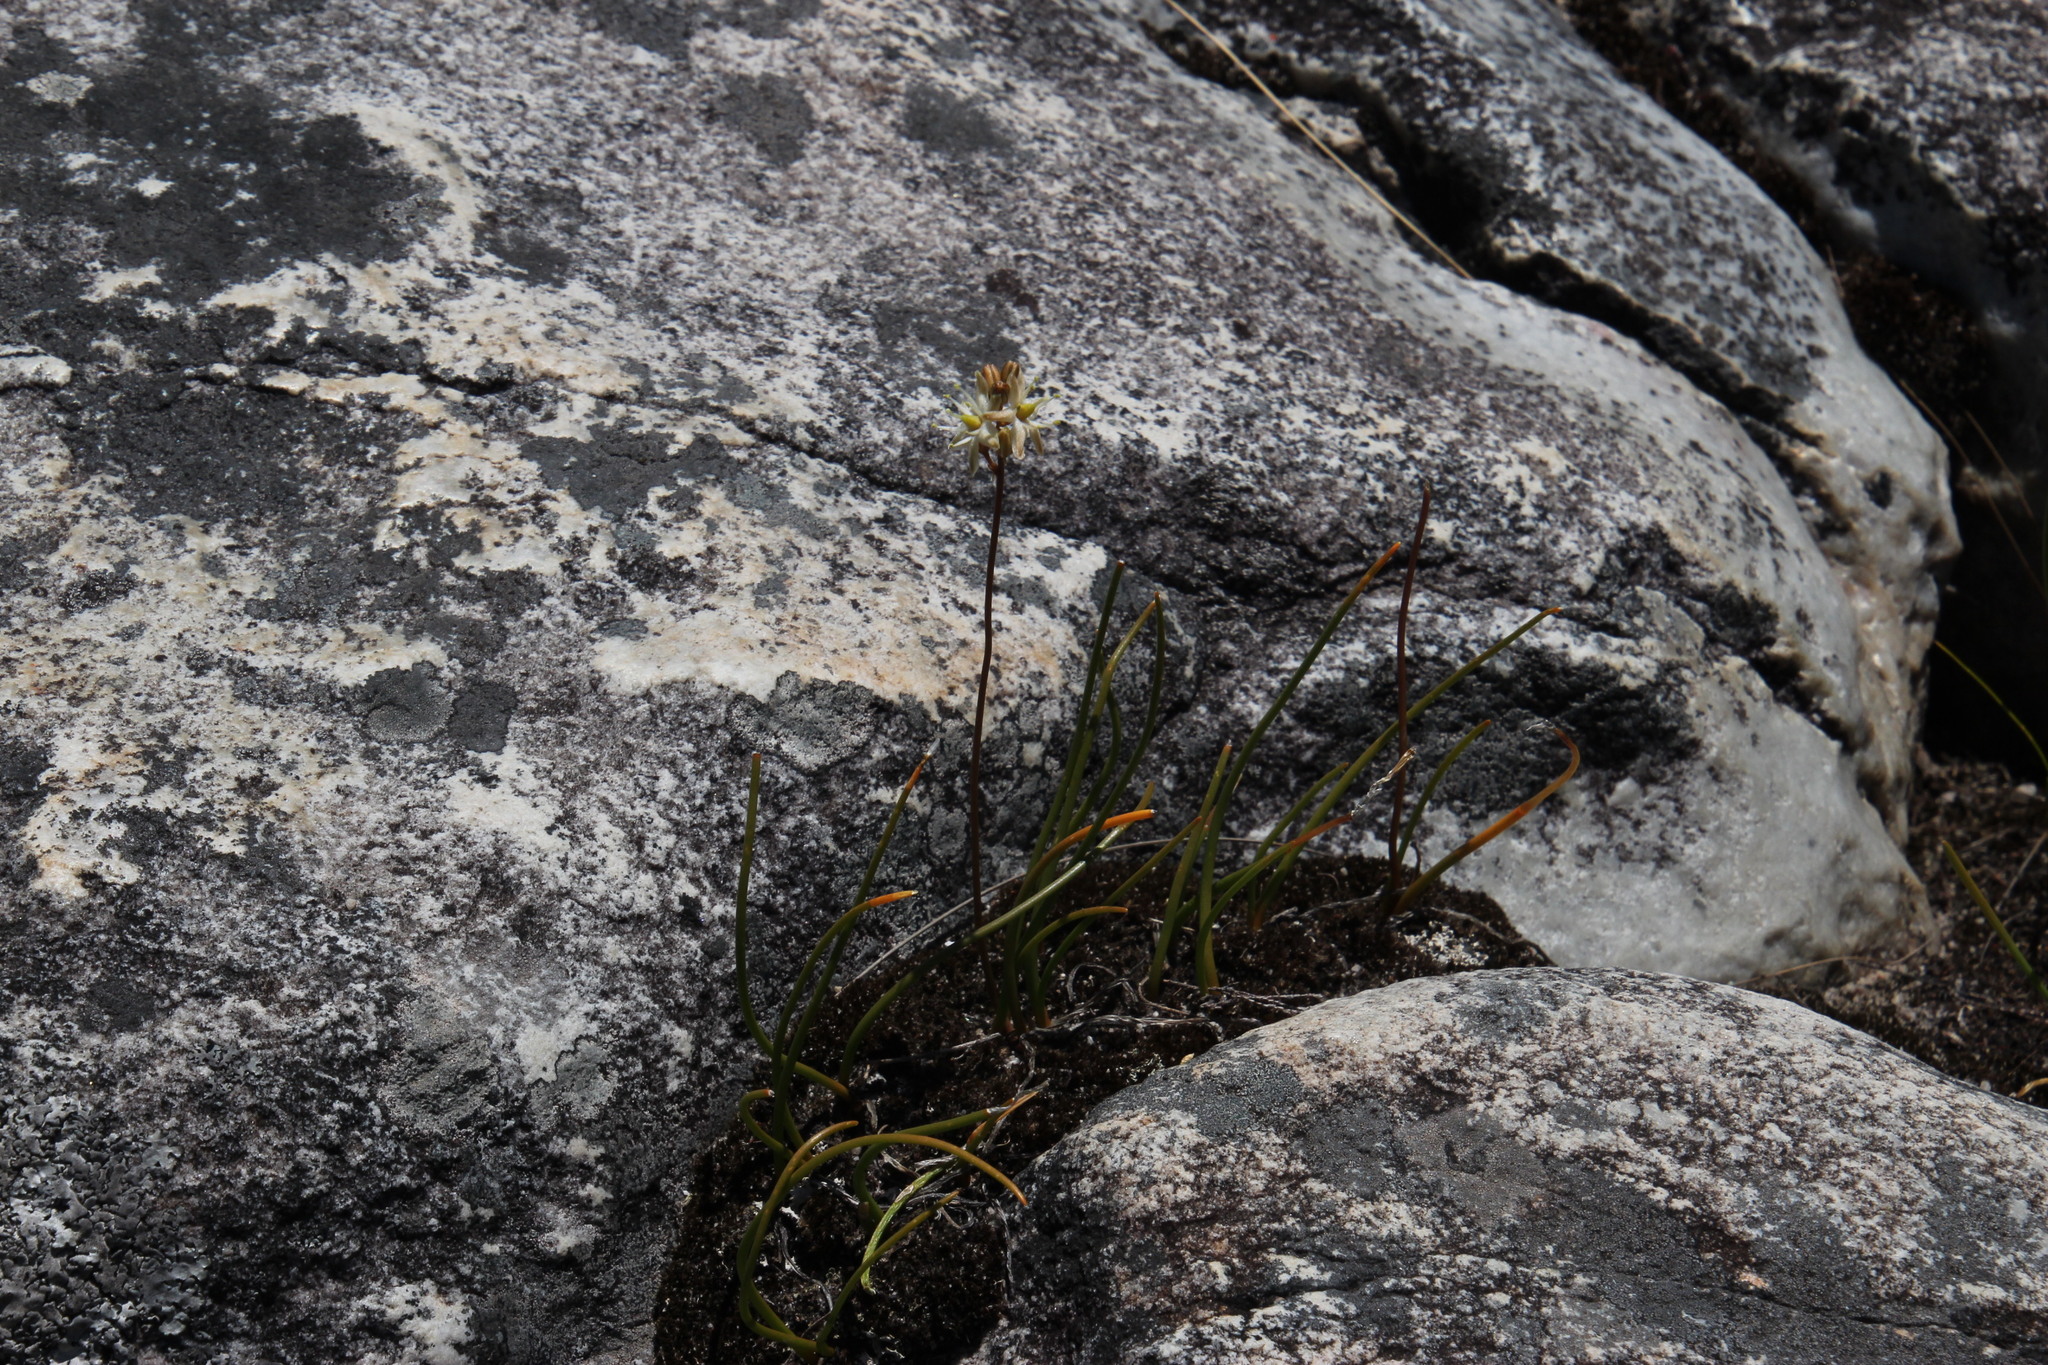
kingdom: Plantae
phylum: Tracheophyta
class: Liliopsida
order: Asparagales
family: Asparagaceae
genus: Drimia
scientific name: Drimia salteri
